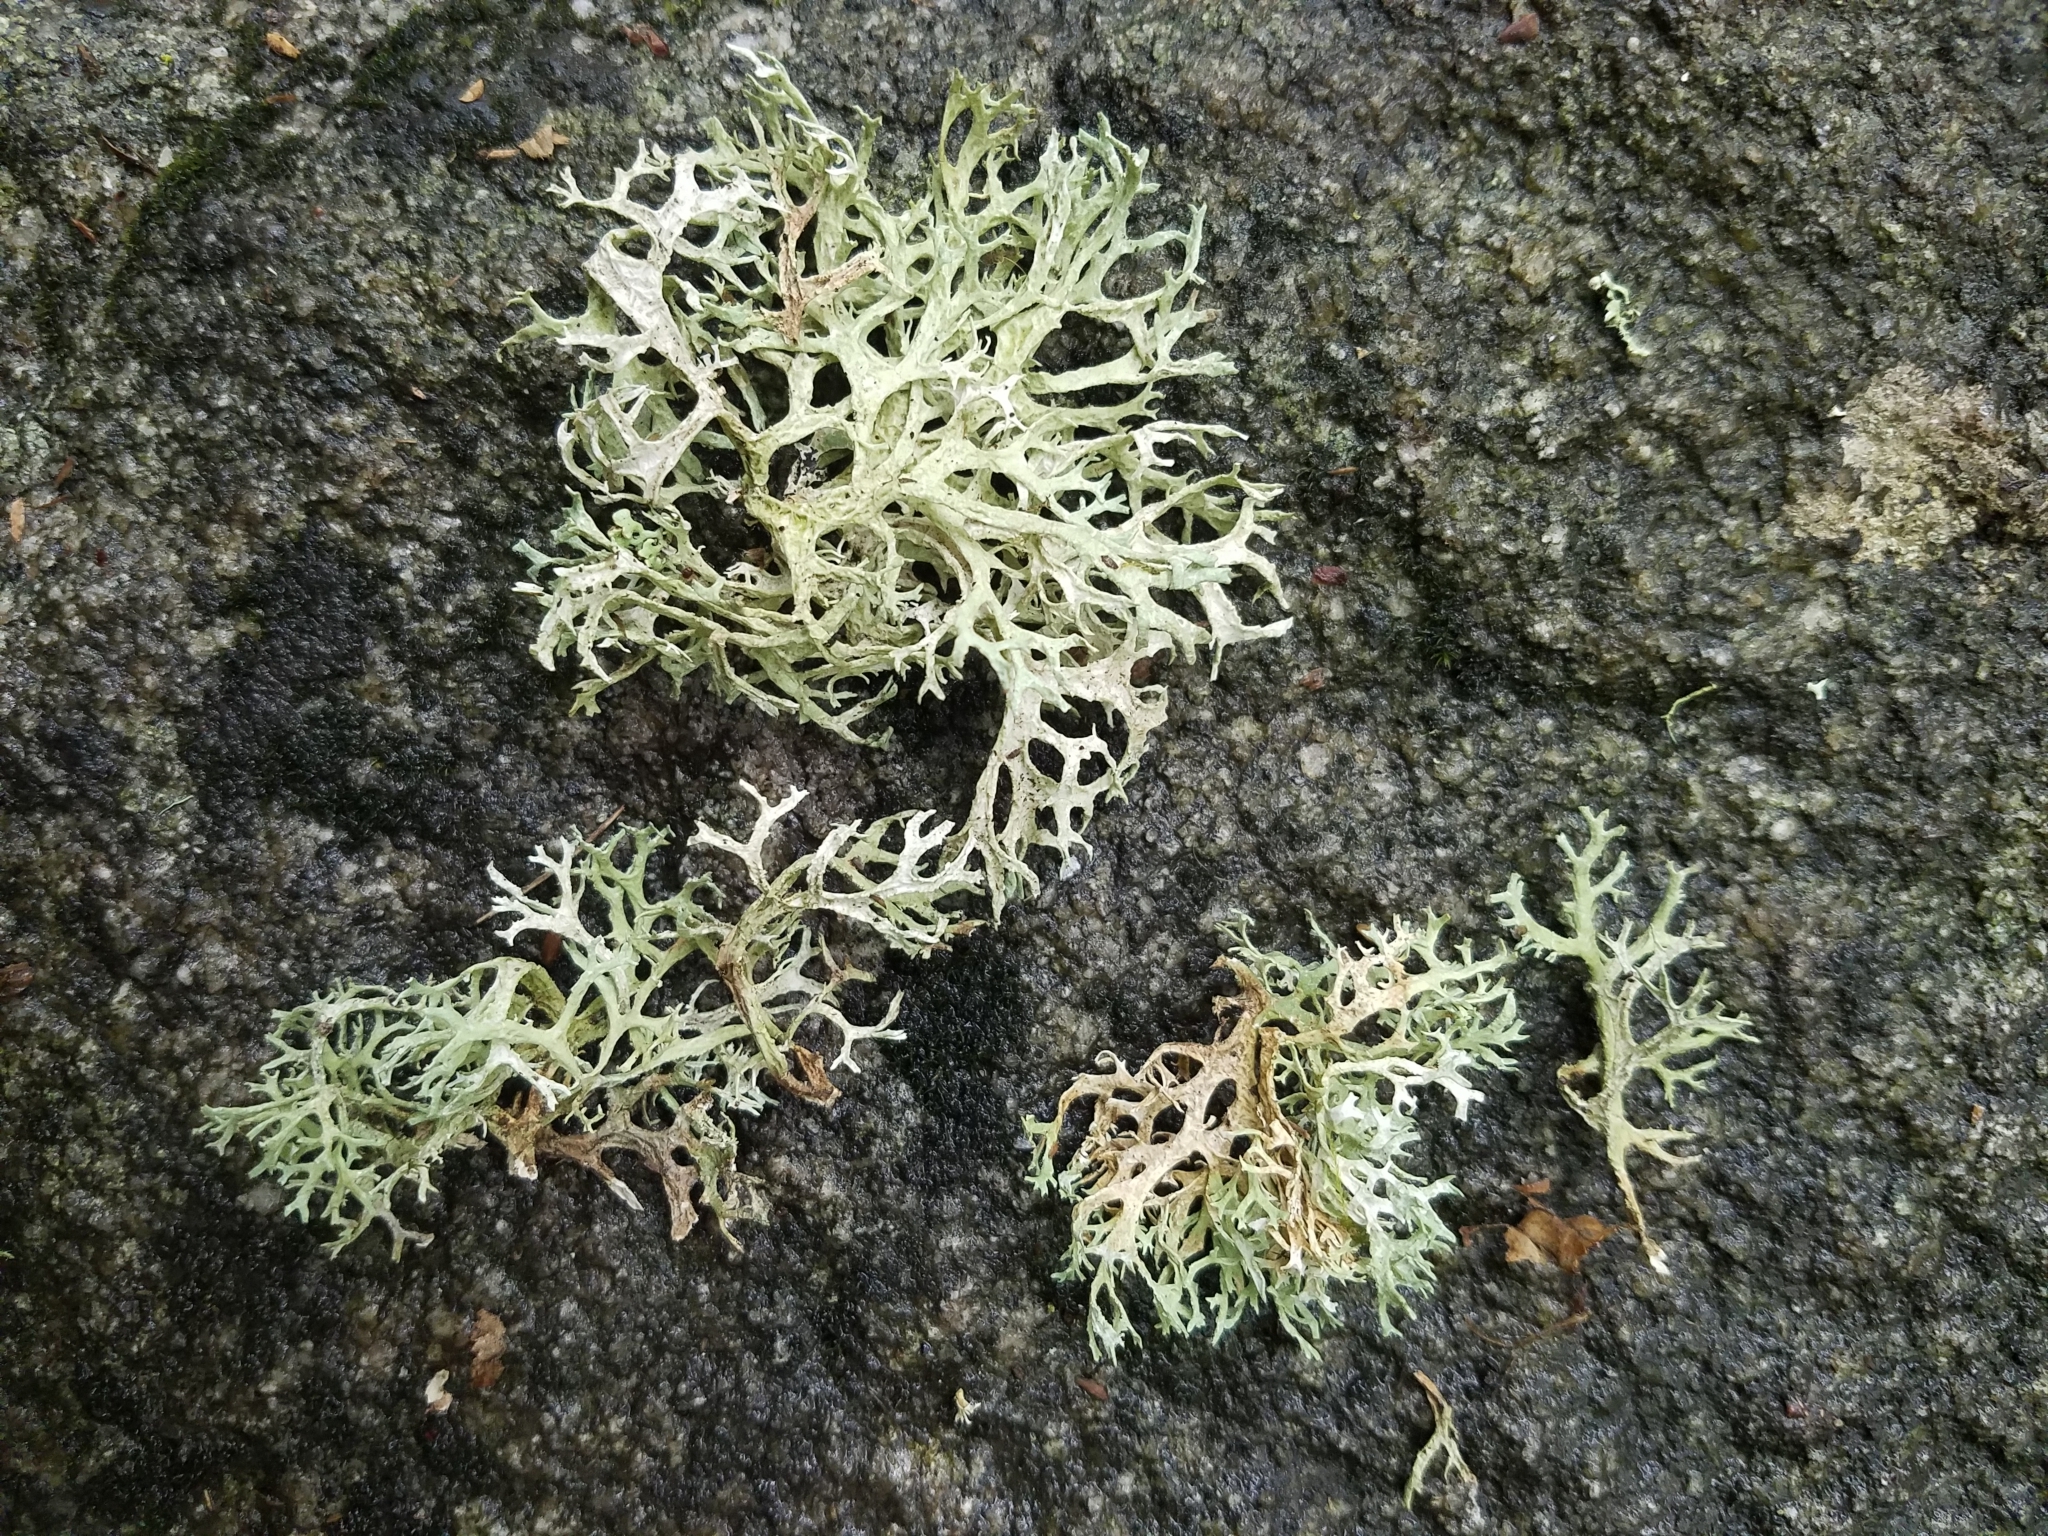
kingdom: Fungi
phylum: Ascomycota
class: Lecanoromycetes
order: Lecanorales
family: Parmeliaceae
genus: Evernia
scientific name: Evernia prunastri
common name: Oak moss
